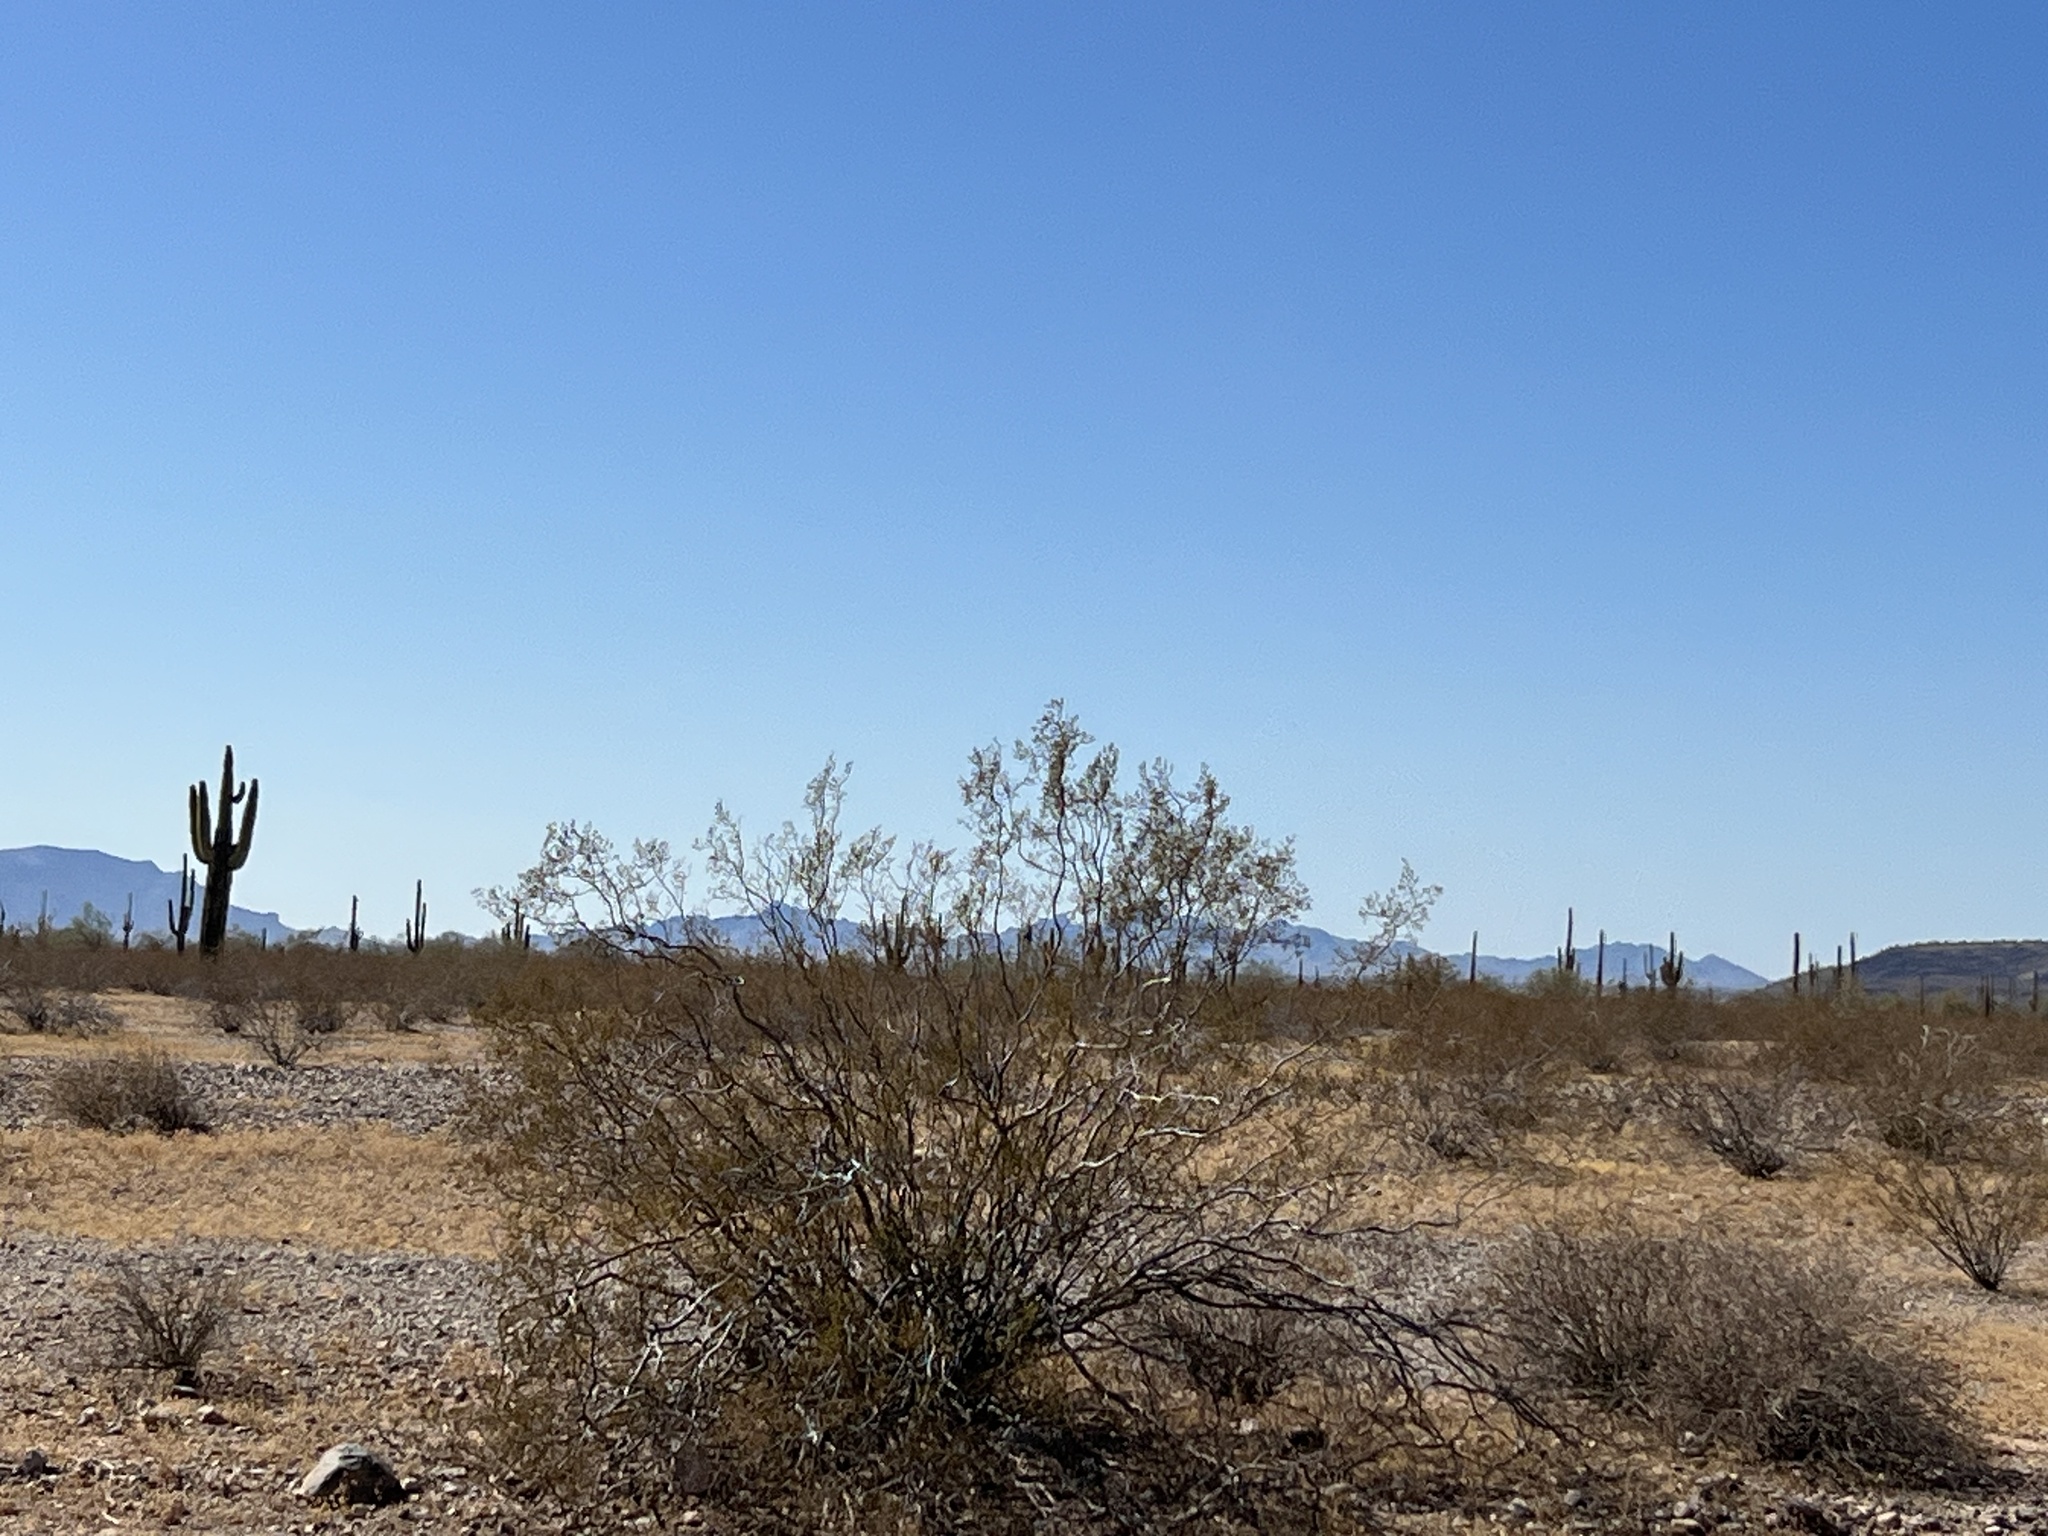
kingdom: Plantae
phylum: Tracheophyta
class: Magnoliopsida
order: Zygophyllales
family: Zygophyllaceae
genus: Larrea
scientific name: Larrea tridentata
